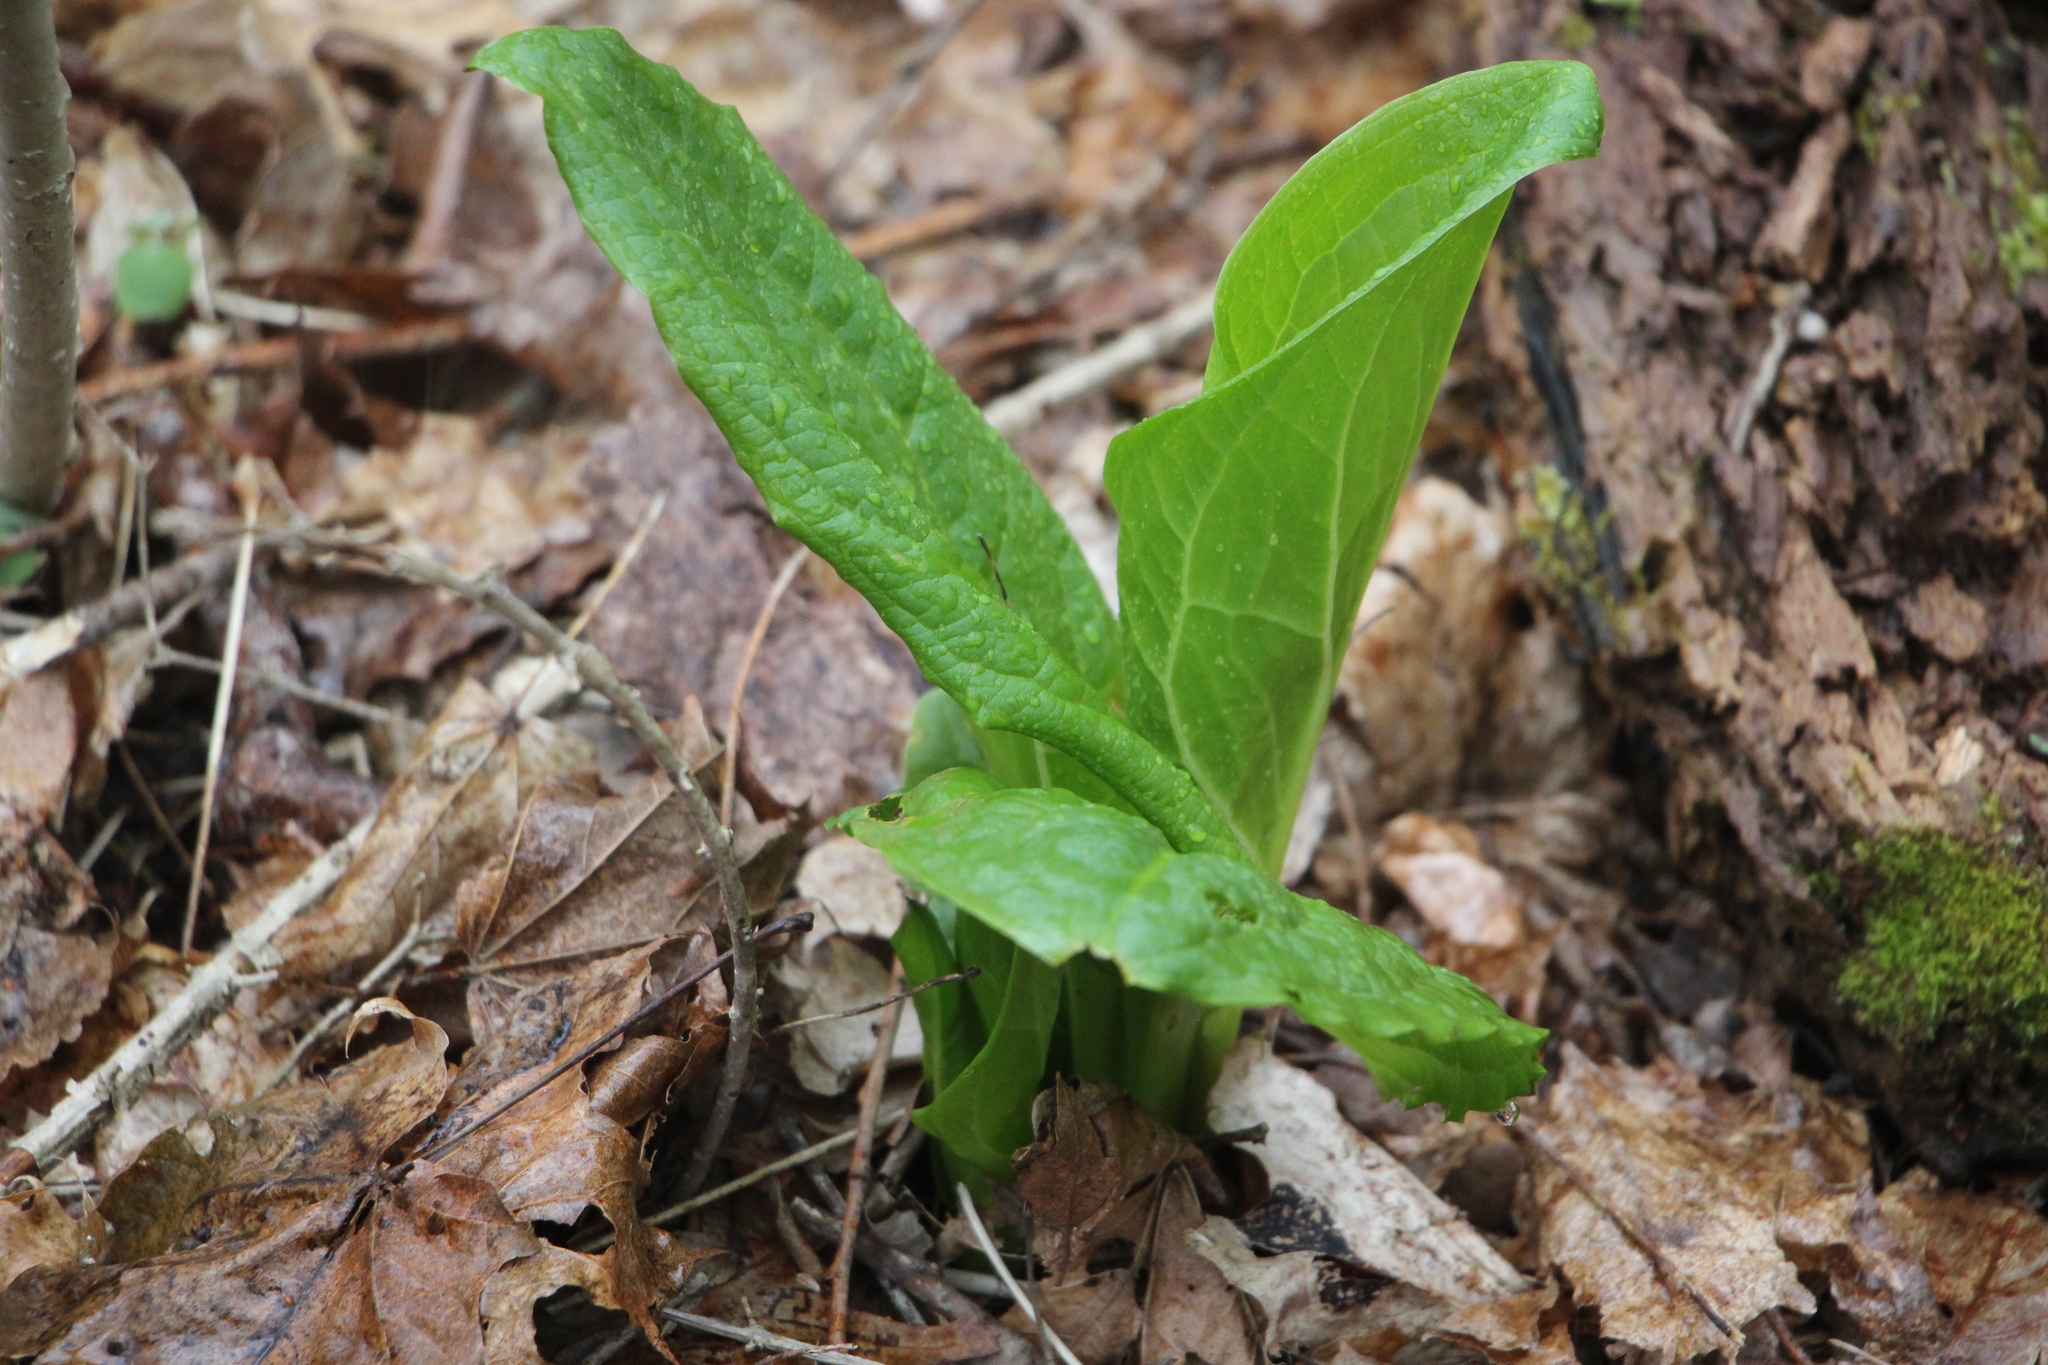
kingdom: Plantae
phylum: Tracheophyta
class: Liliopsida
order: Alismatales
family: Araceae
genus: Symplocarpus
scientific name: Symplocarpus foetidus
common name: Eastern skunk cabbage
